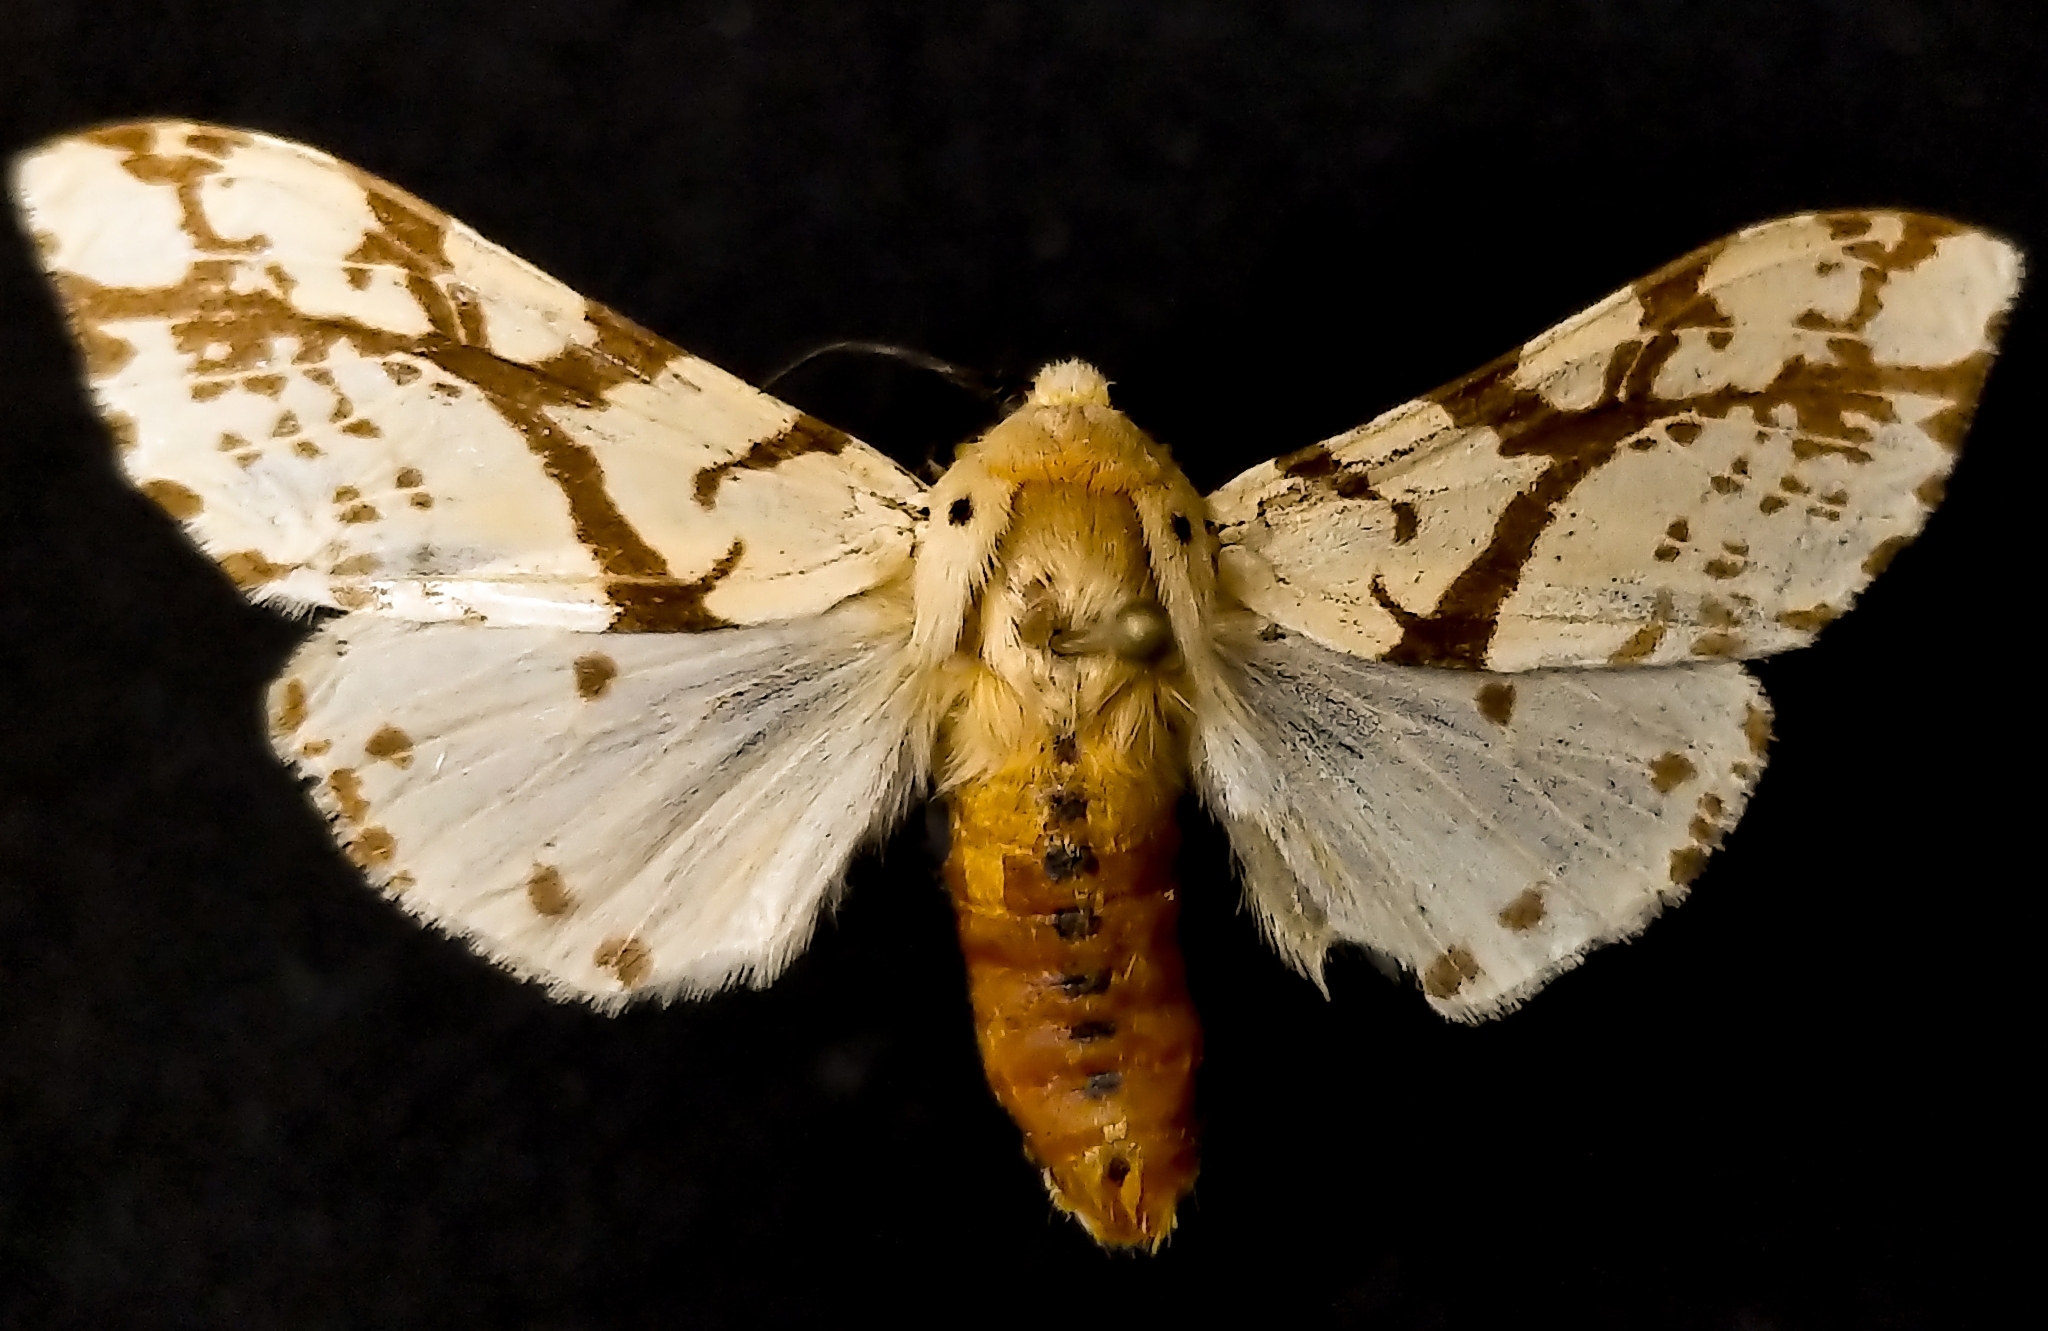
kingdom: Animalia
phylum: Arthropoda
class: Insecta
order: Lepidoptera
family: Erebidae
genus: Afraloa
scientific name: Afraloa bifurca
